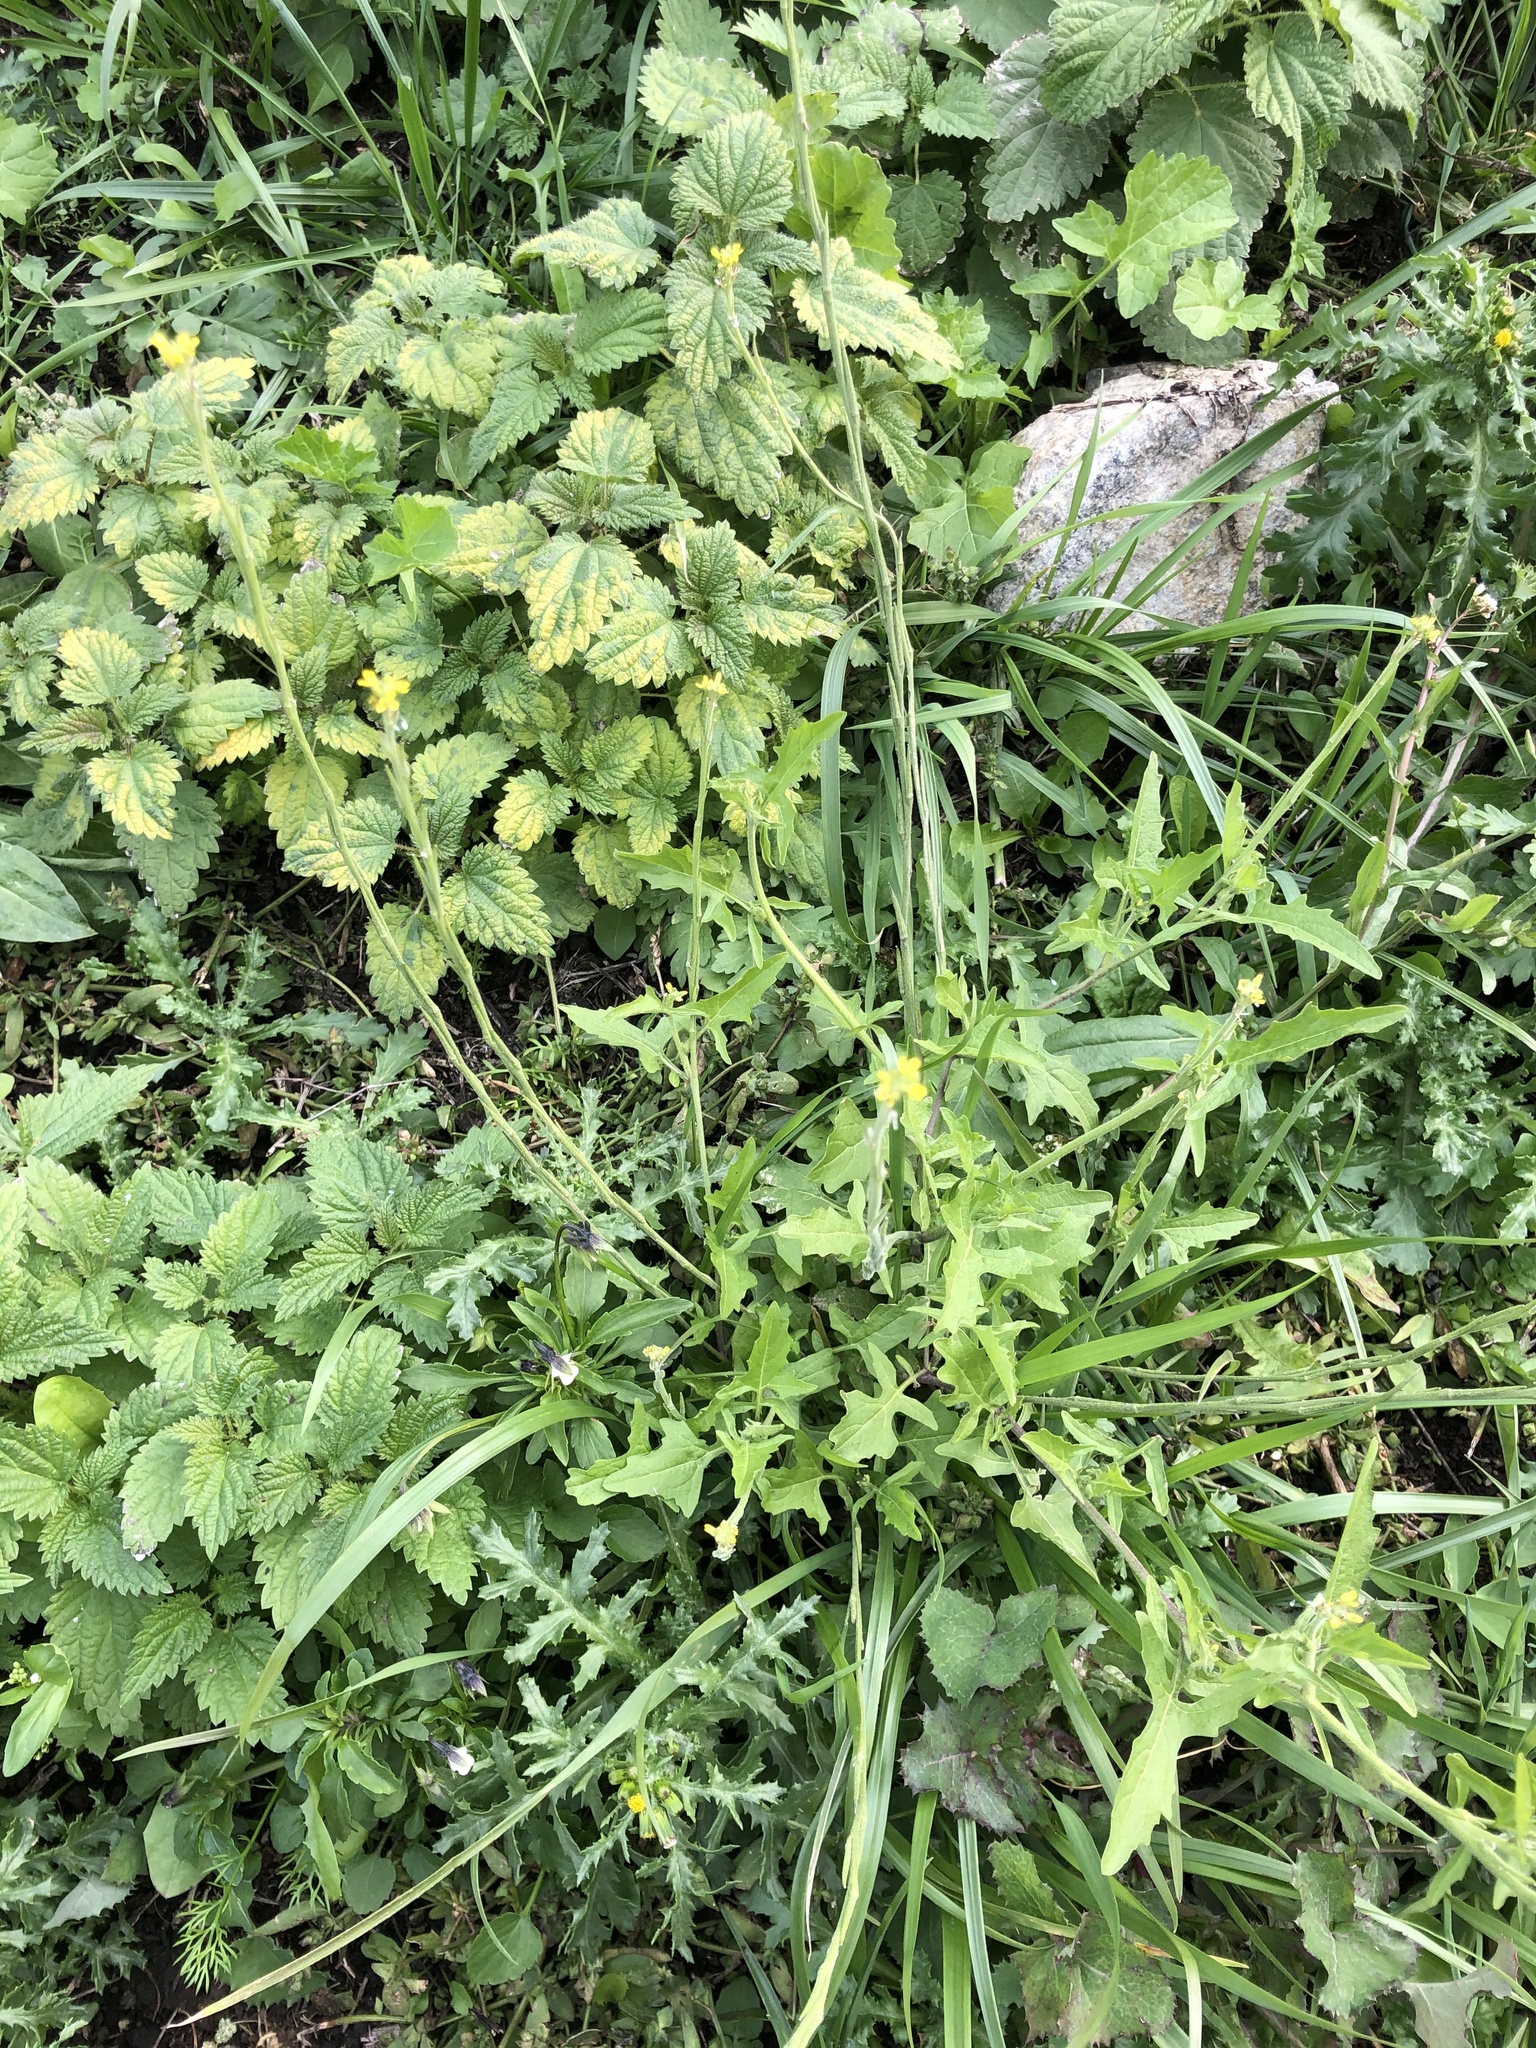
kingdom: Plantae
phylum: Tracheophyta
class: Magnoliopsida
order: Brassicales
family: Brassicaceae
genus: Sisymbrium
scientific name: Sisymbrium officinale
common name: Hedge mustard
